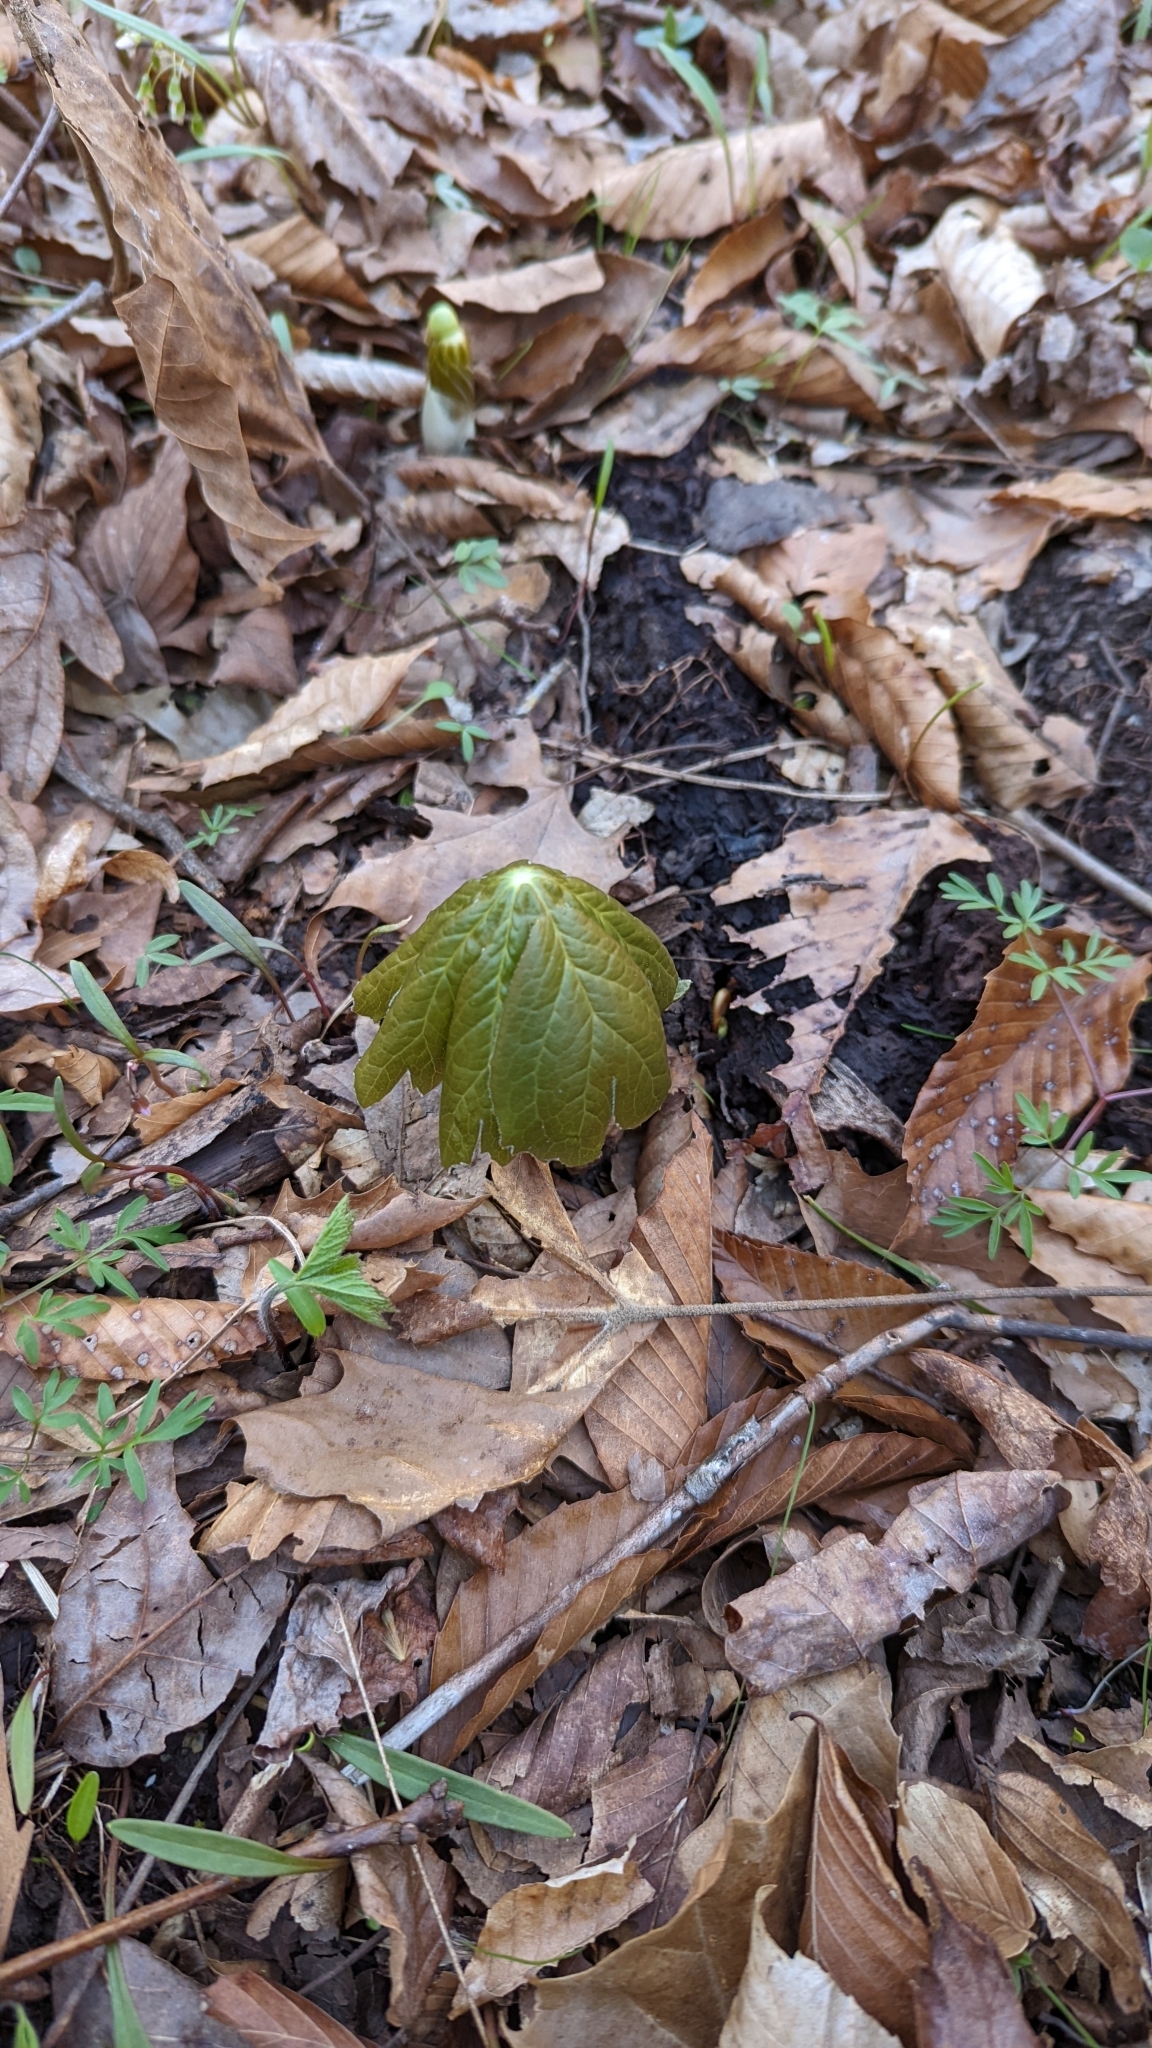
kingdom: Plantae
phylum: Tracheophyta
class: Magnoliopsida
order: Ranunculales
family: Berberidaceae
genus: Podophyllum
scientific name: Podophyllum peltatum
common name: Wild mandrake
